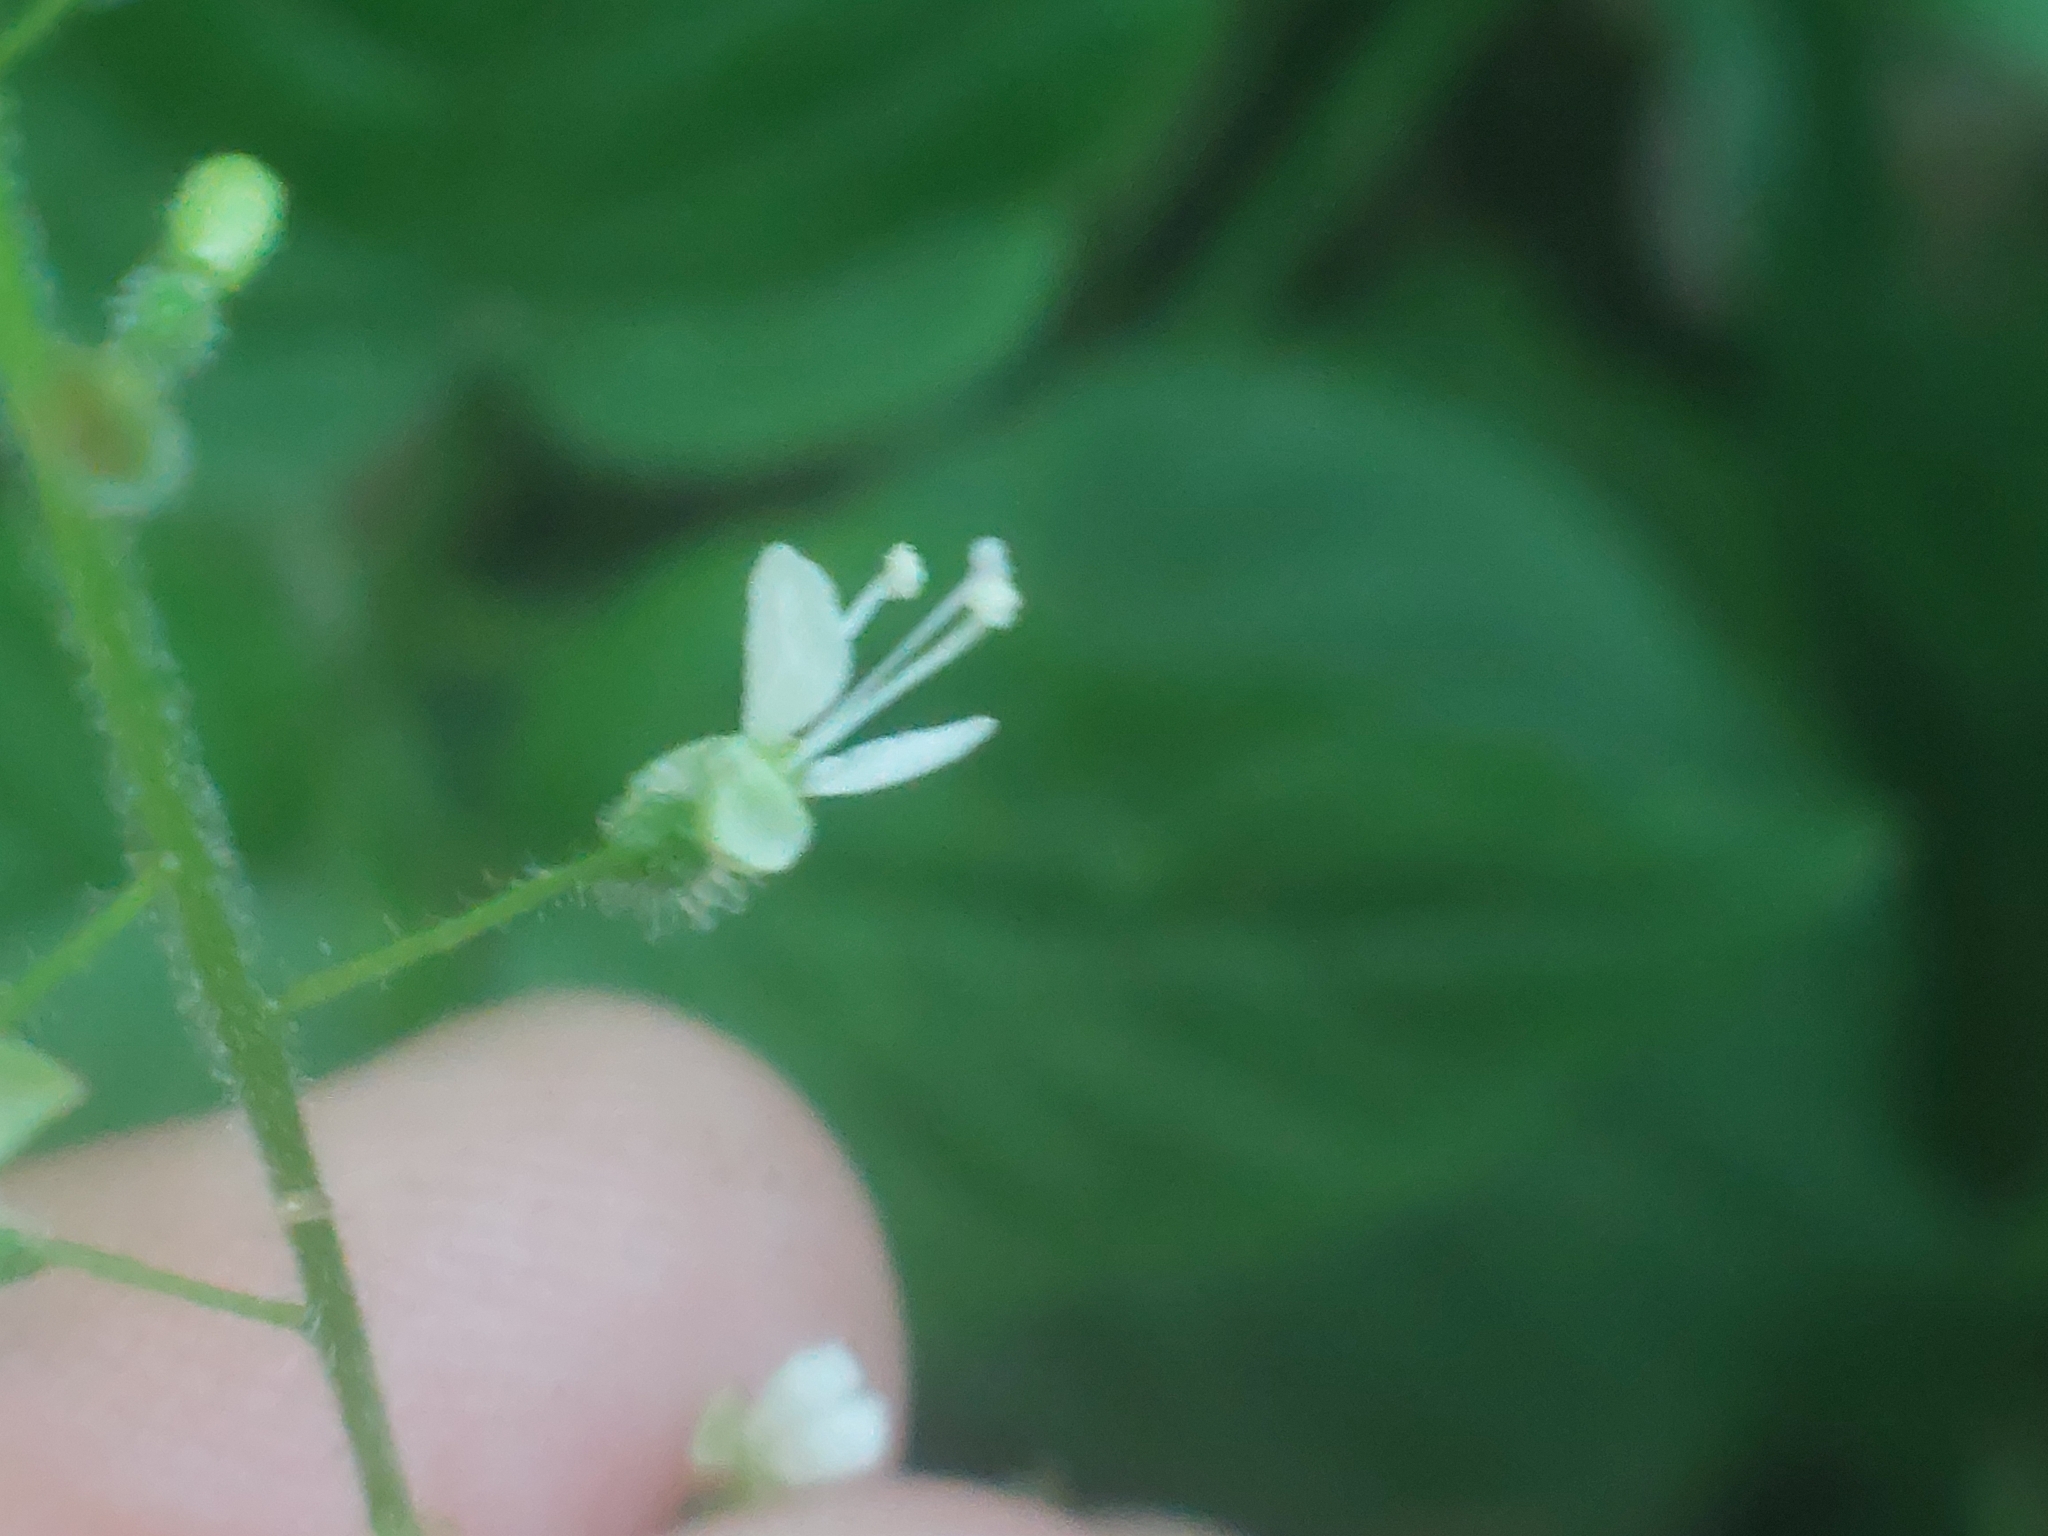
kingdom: Plantae
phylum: Tracheophyta
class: Magnoliopsida
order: Myrtales
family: Onagraceae
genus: Circaea
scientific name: Circaea lutetiana
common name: Enchanter's-nightshade
